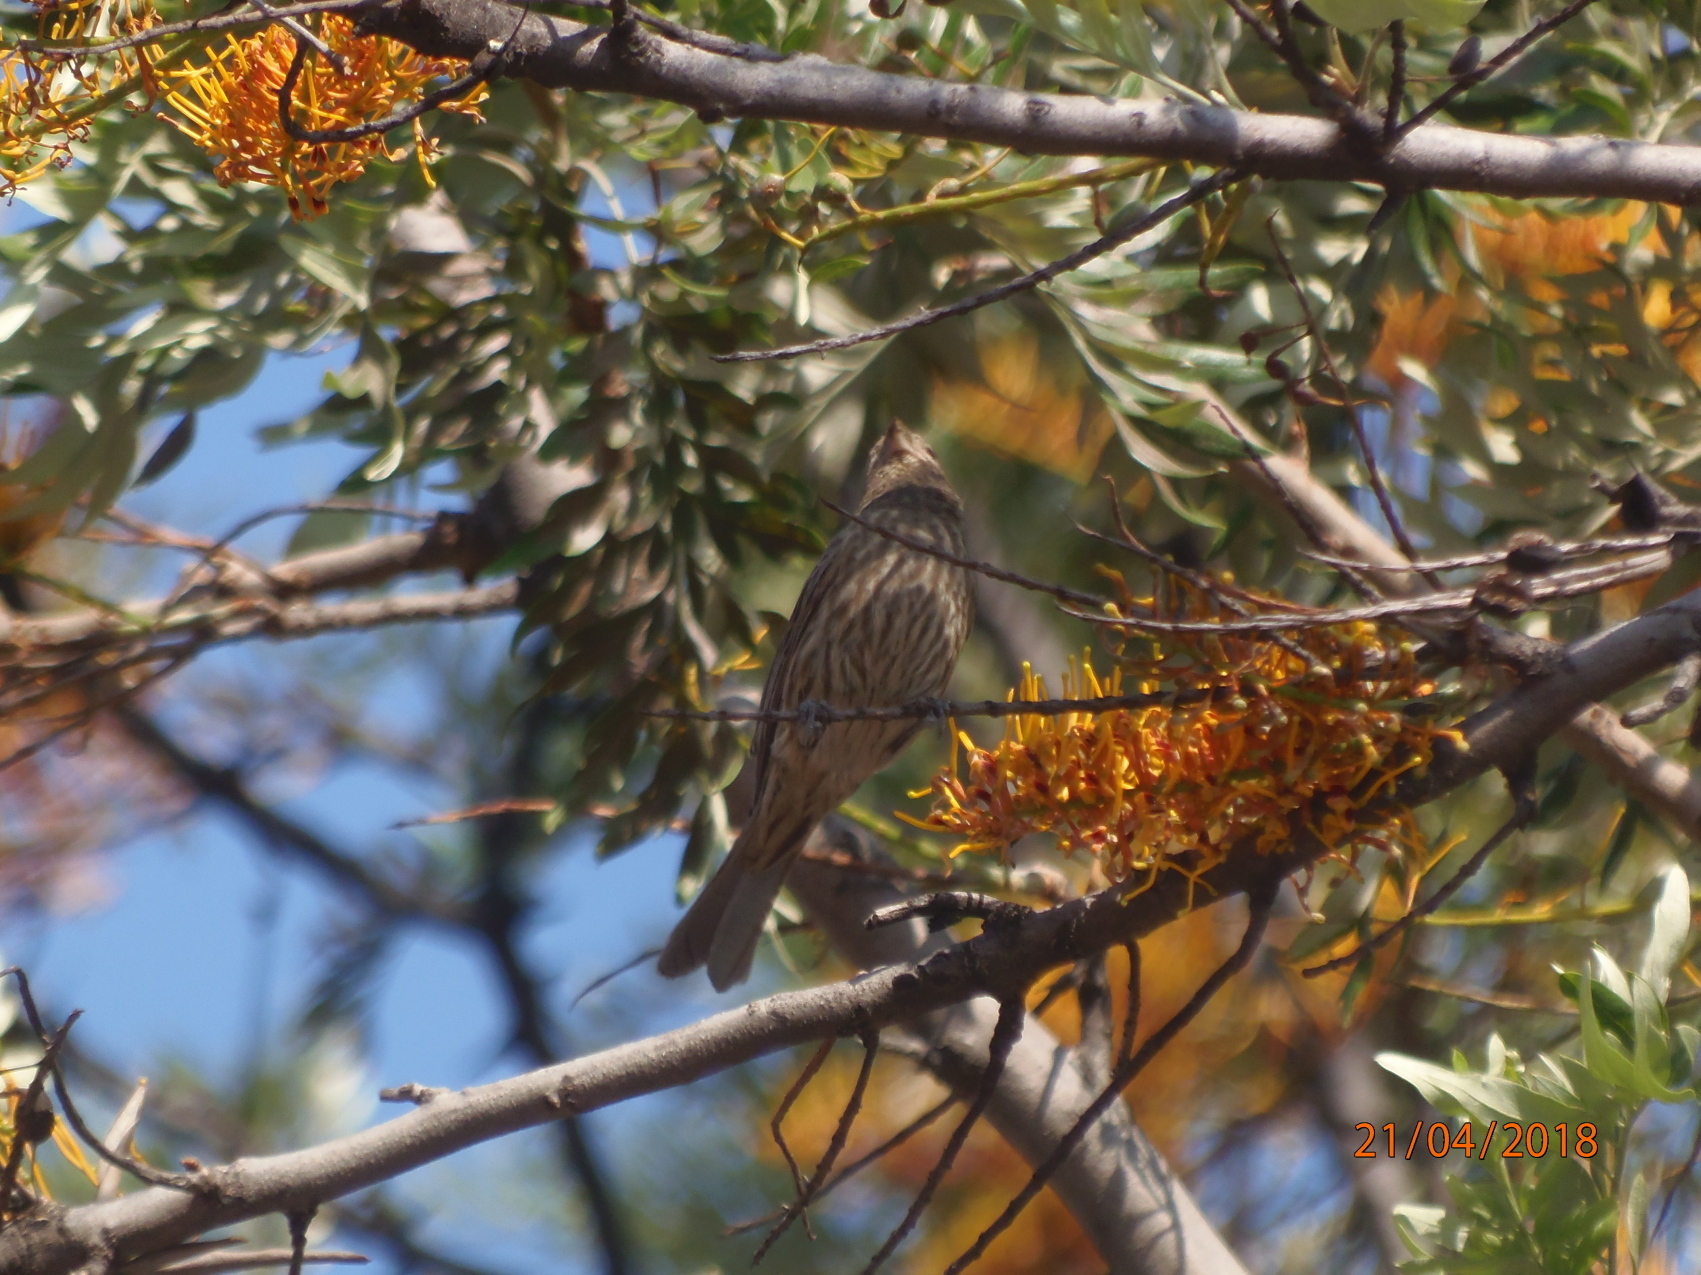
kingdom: Animalia
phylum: Chordata
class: Aves
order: Passeriformes
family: Fringillidae
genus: Haemorhous
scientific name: Haemorhous mexicanus
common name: House finch
